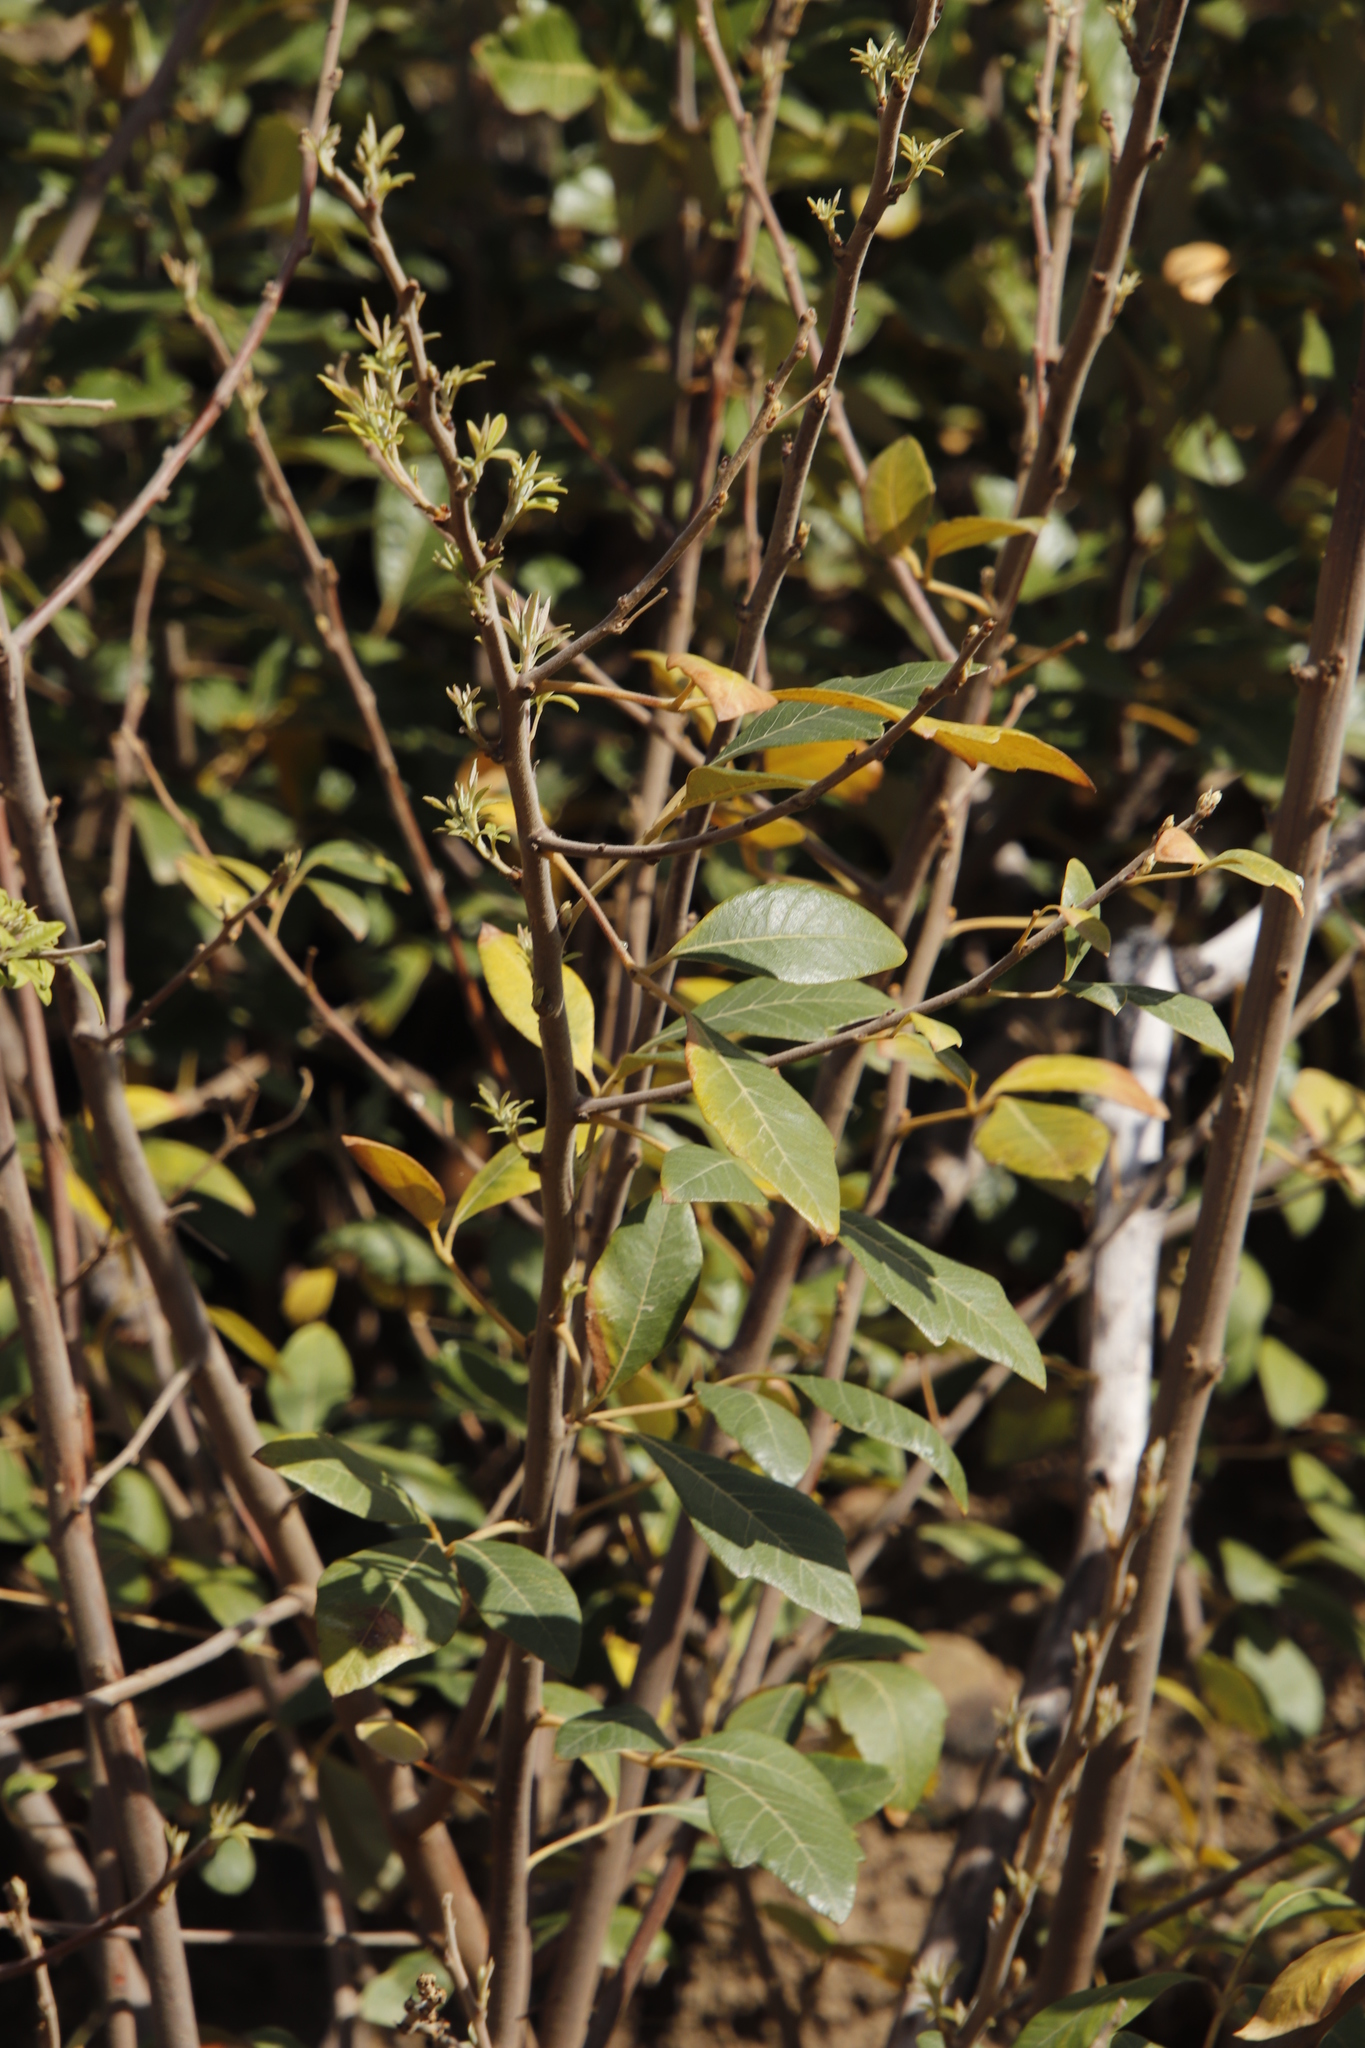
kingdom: Plantae
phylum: Tracheophyta
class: Magnoliopsida
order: Sapindales
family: Anacardiaceae
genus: Searsia
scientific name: Searsia tomentosa
